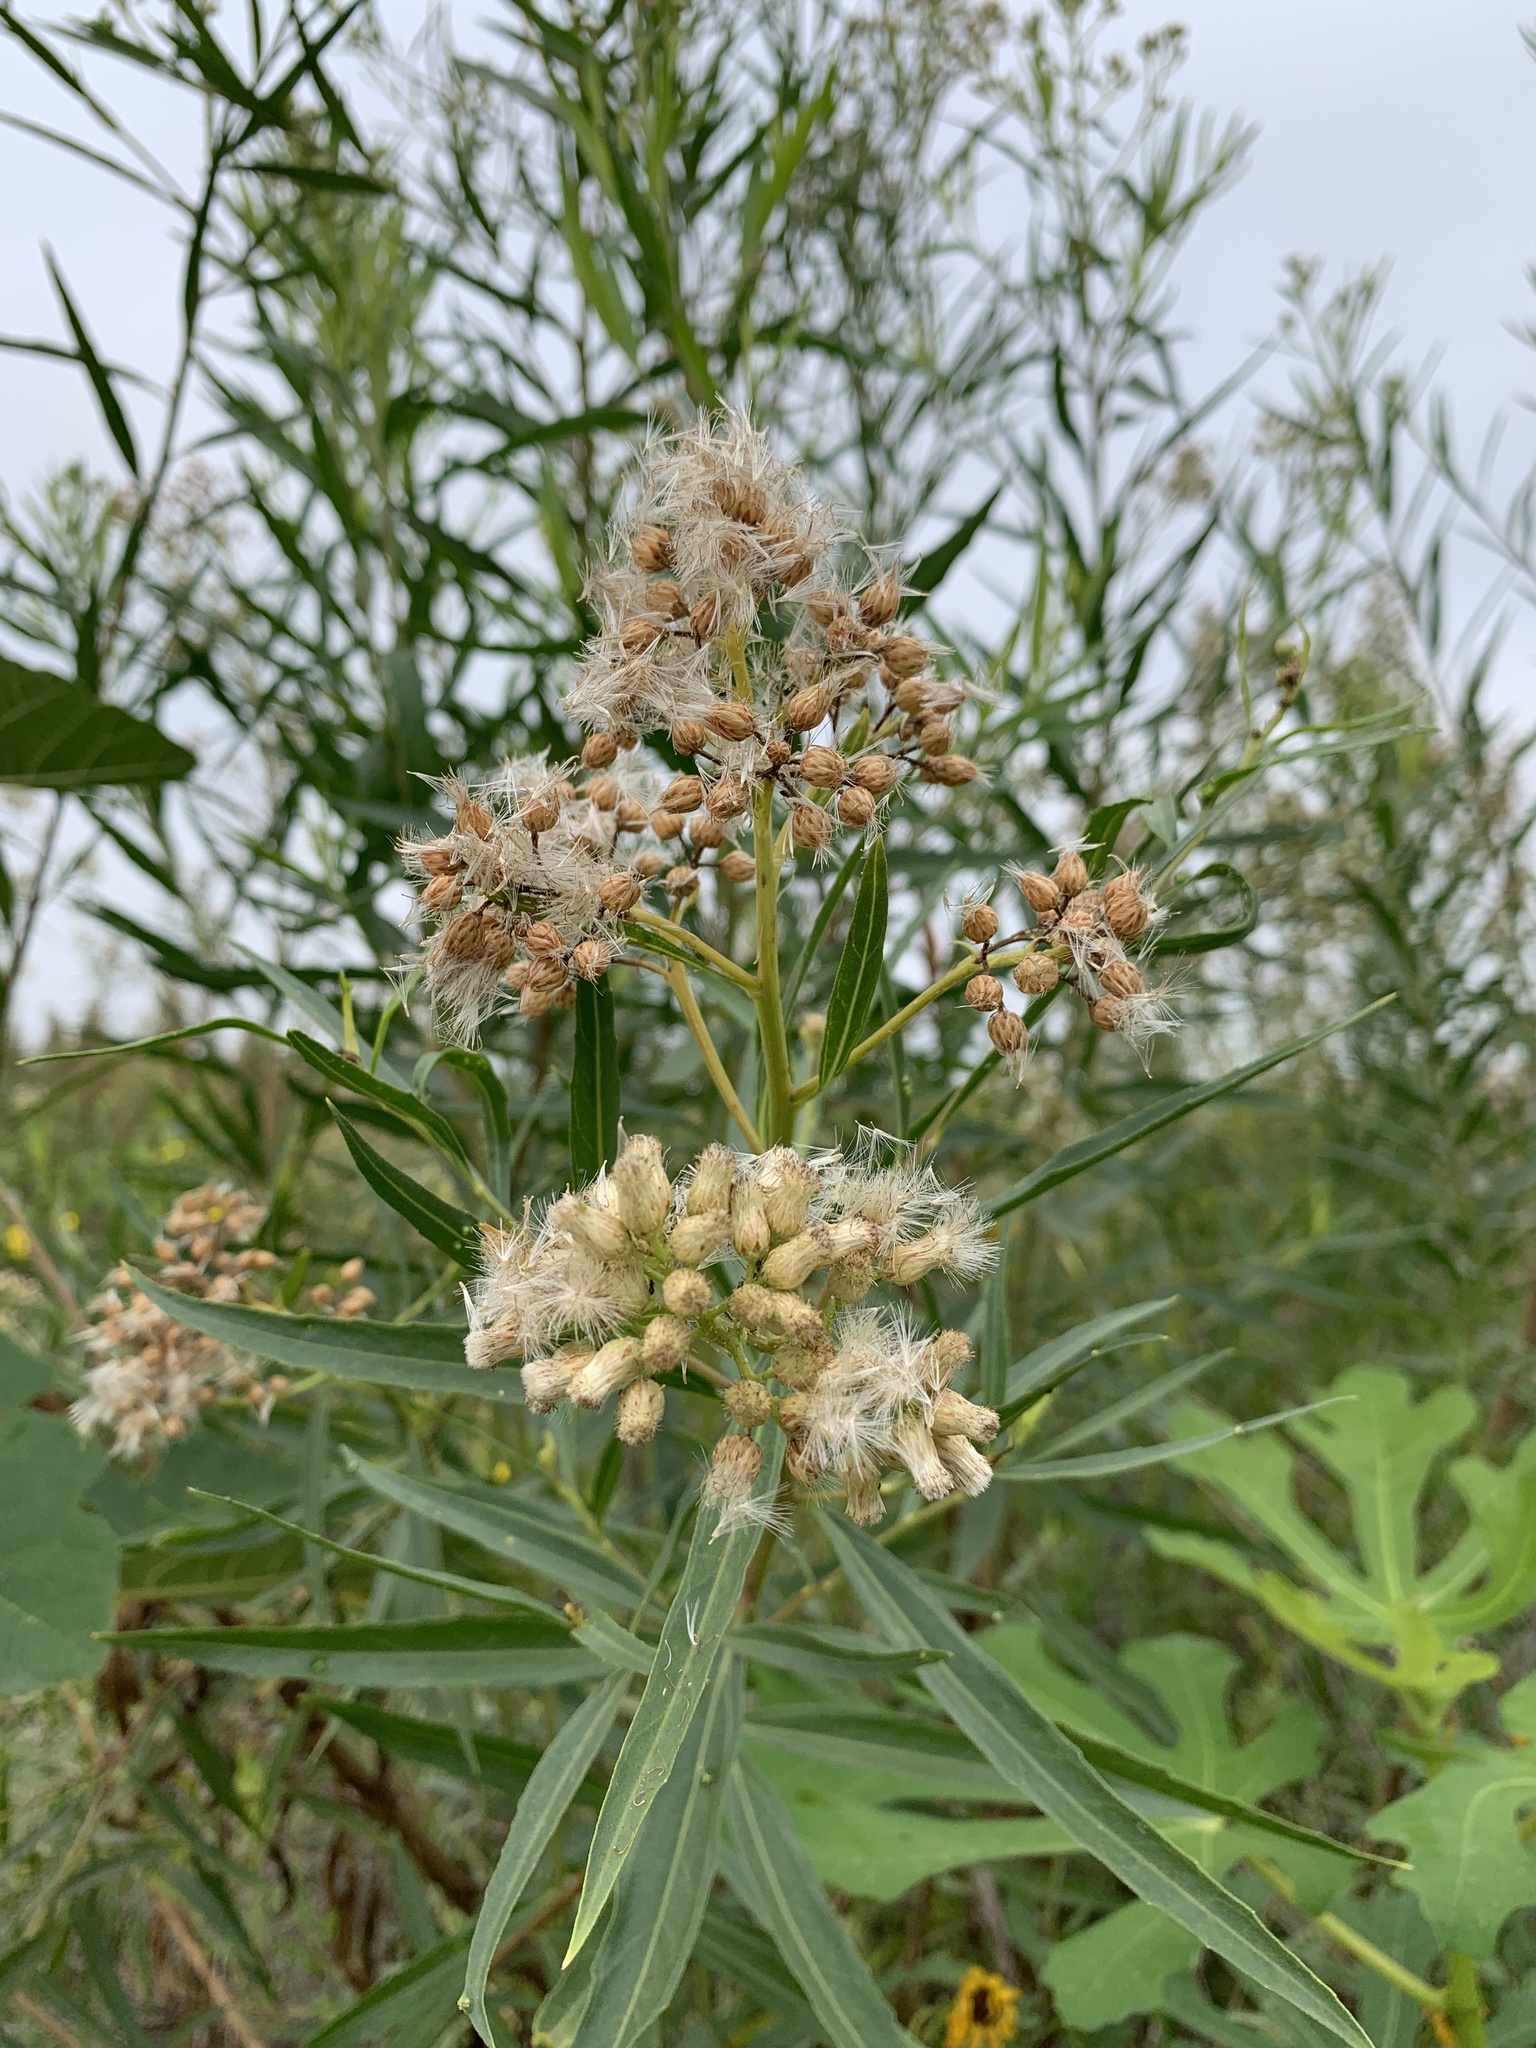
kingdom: Plantae
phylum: Tracheophyta
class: Magnoliopsida
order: Asterales
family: Asteraceae
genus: Baccharis
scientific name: Baccharis salicifolia
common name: Sticky baccharis
